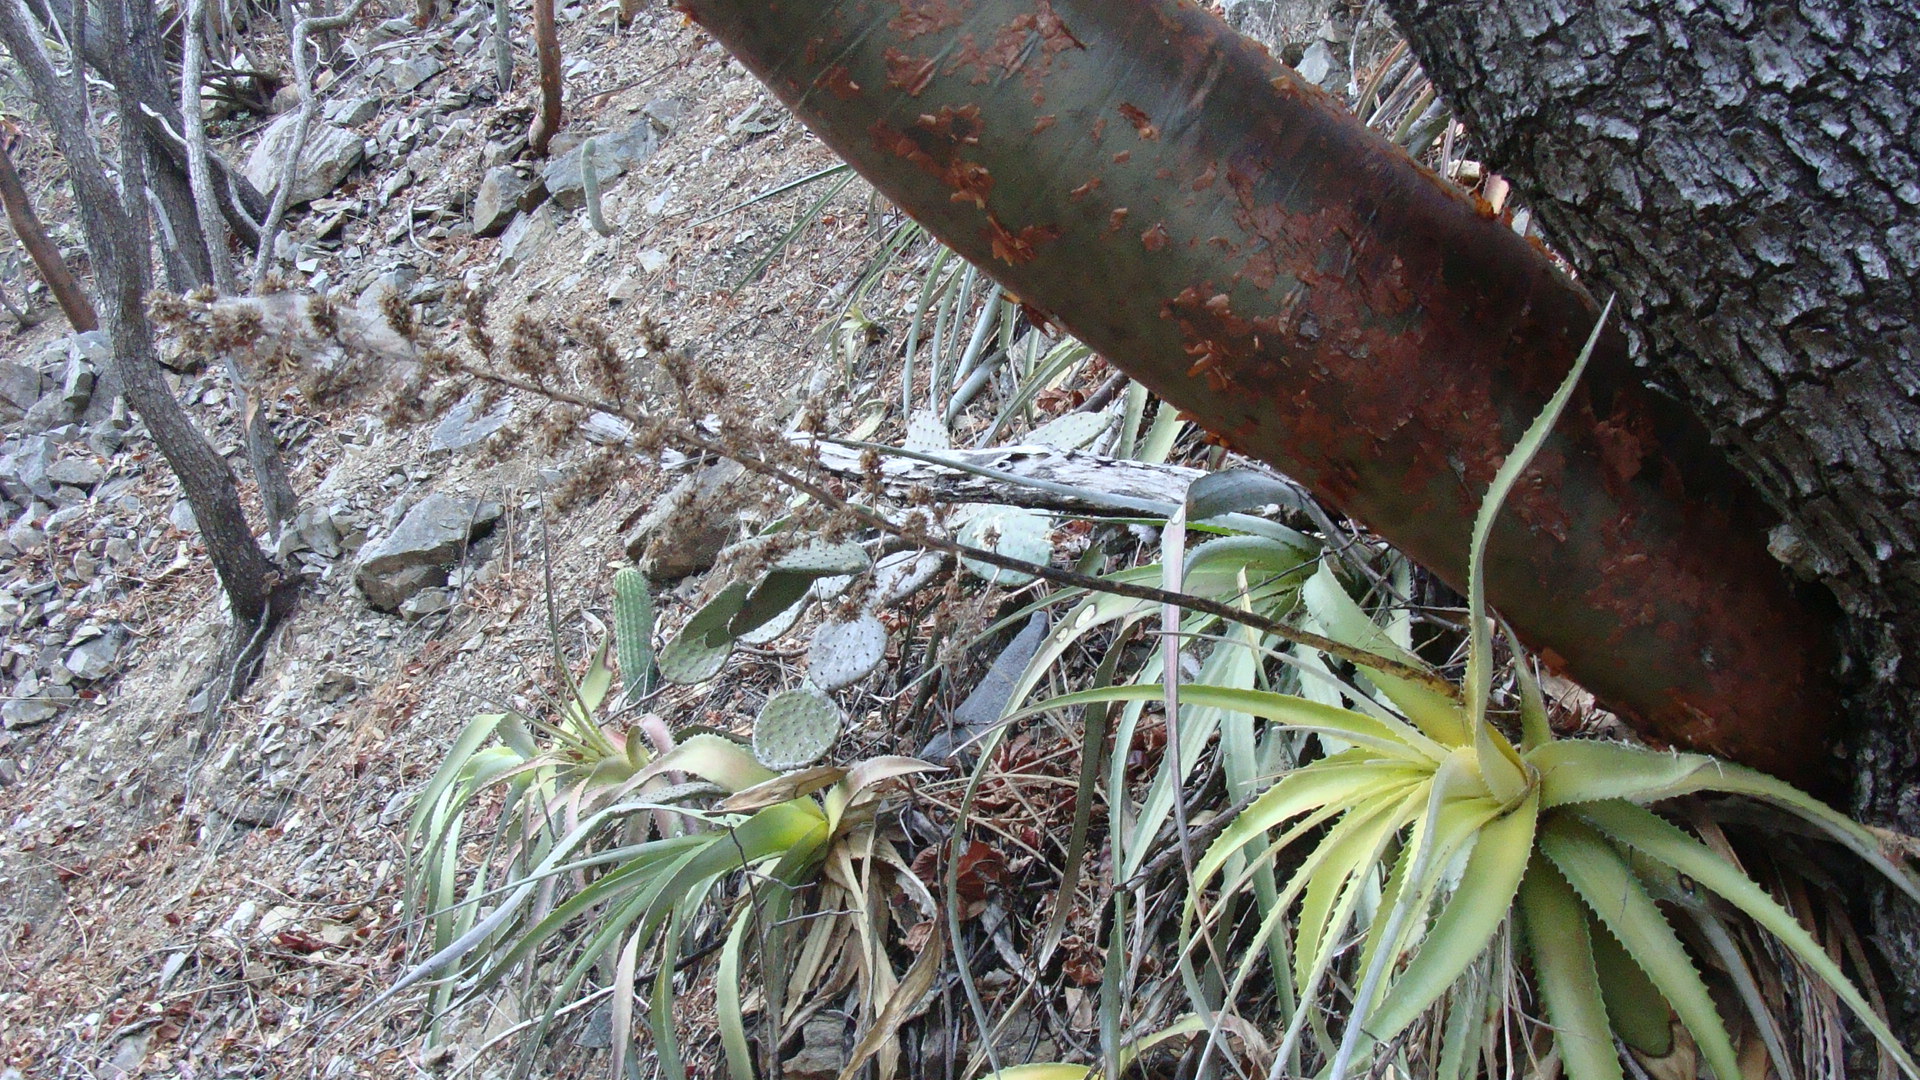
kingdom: Plantae
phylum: Tracheophyta
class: Liliopsida
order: Poales
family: Bromeliaceae
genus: Hechtia
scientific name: Hechtia rubicunda
